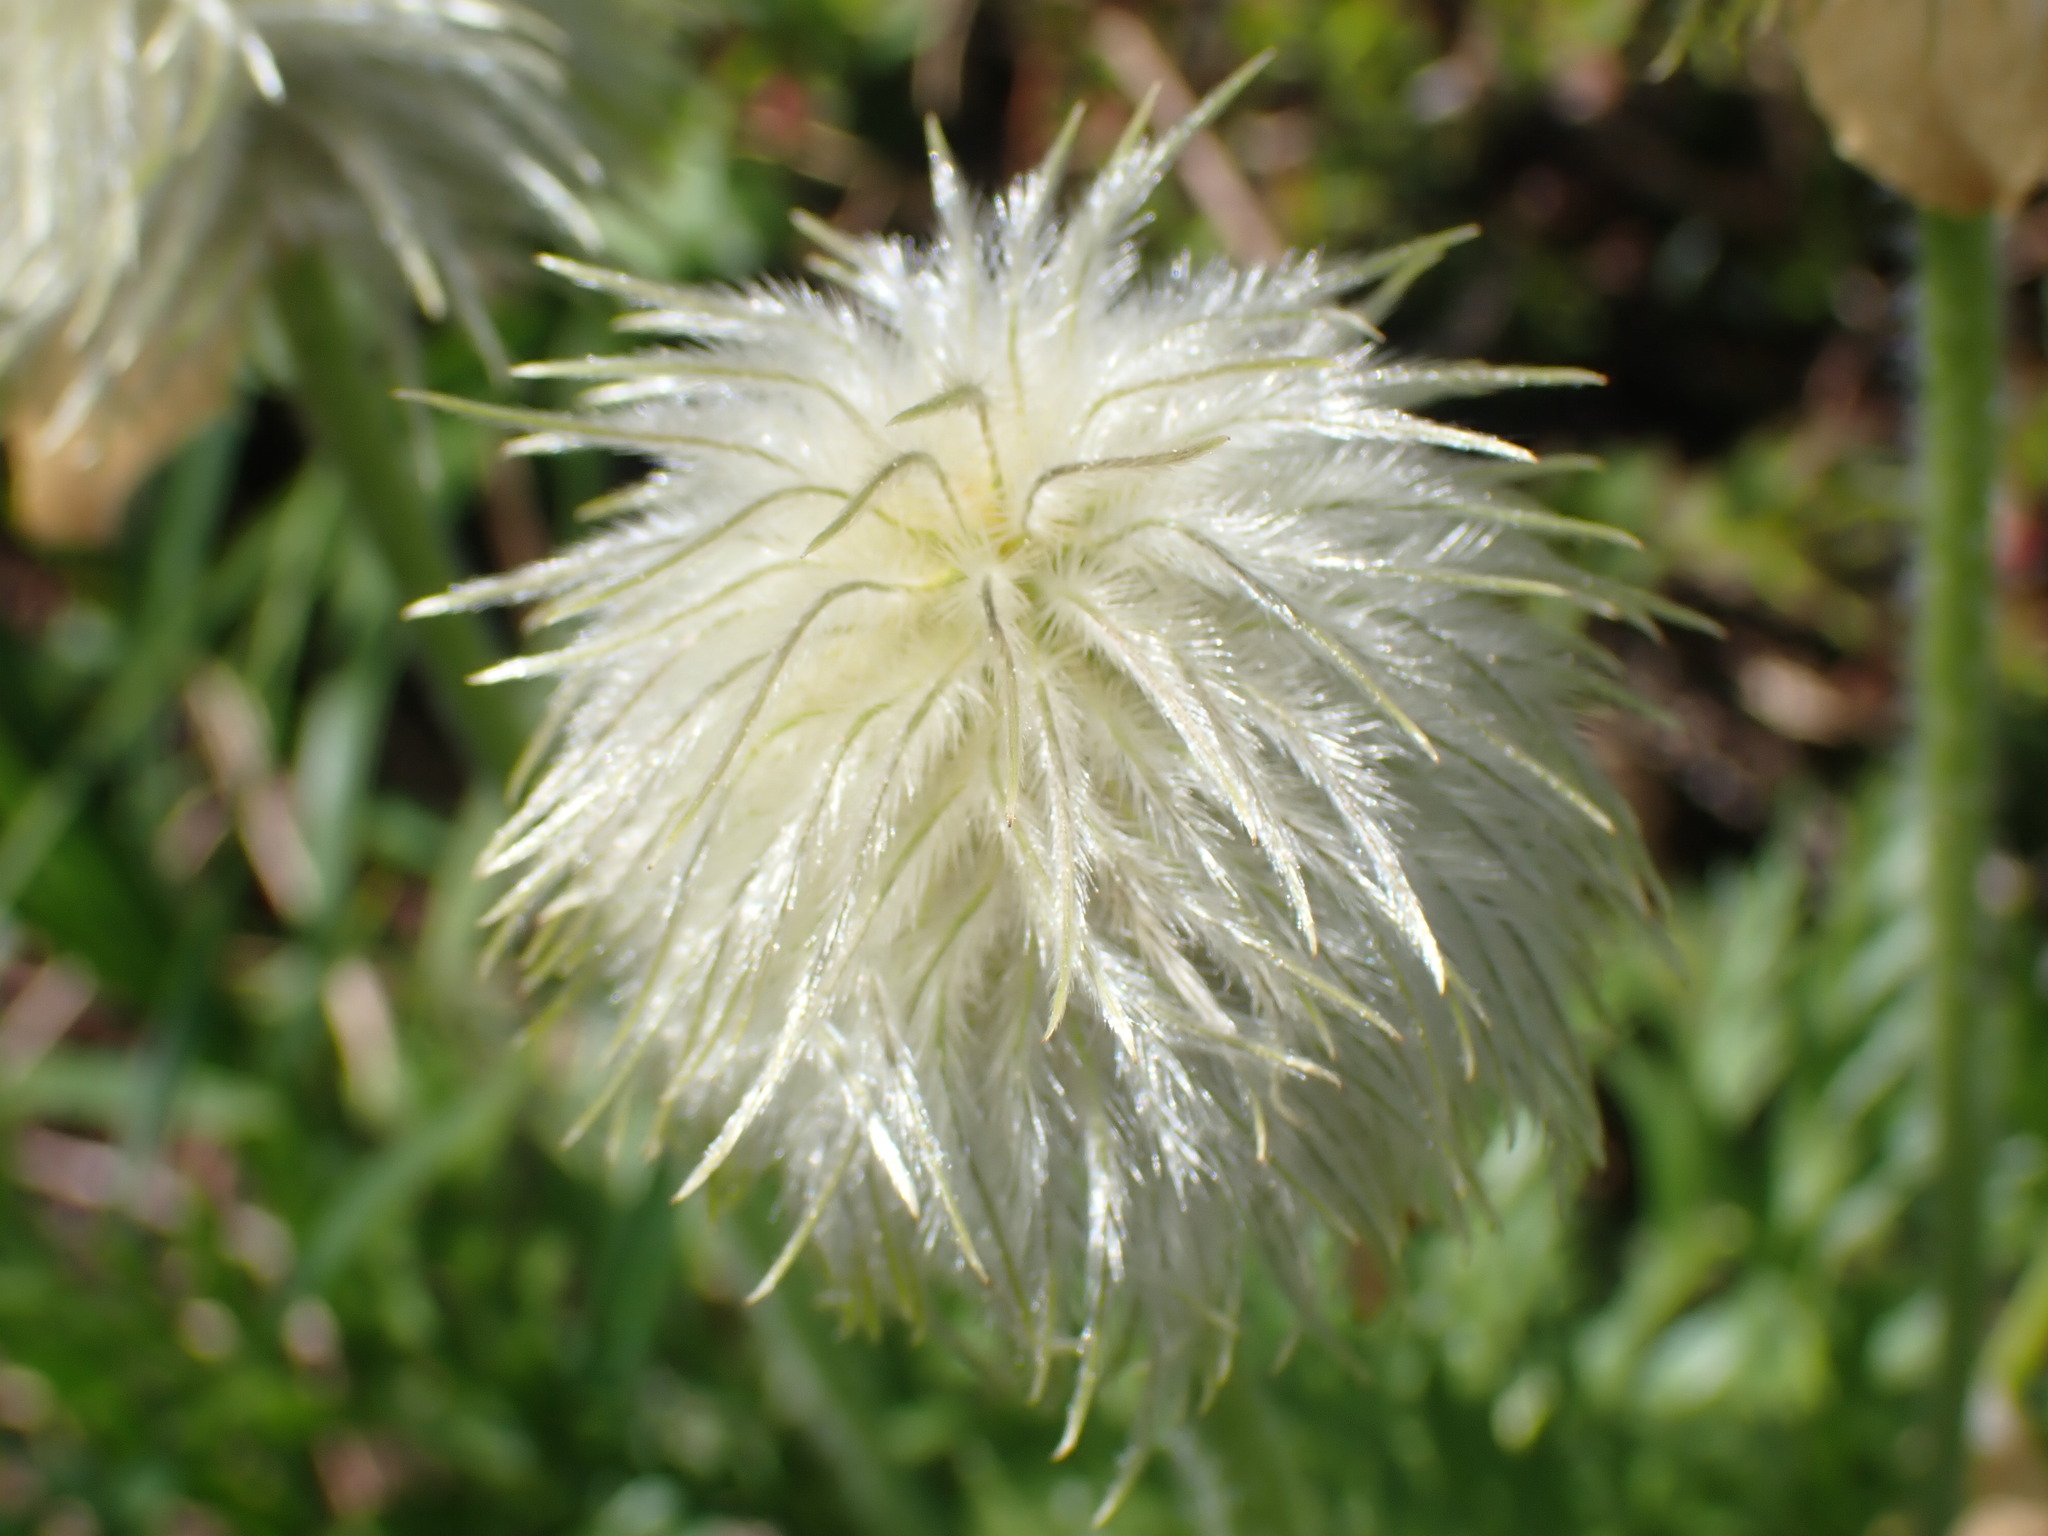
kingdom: Plantae
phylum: Tracheophyta
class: Magnoliopsida
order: Ranunculales
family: Ranunculaceae
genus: Pulsatilla
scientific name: Pulsatilla occidentalis
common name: Mountain pasqueflower
